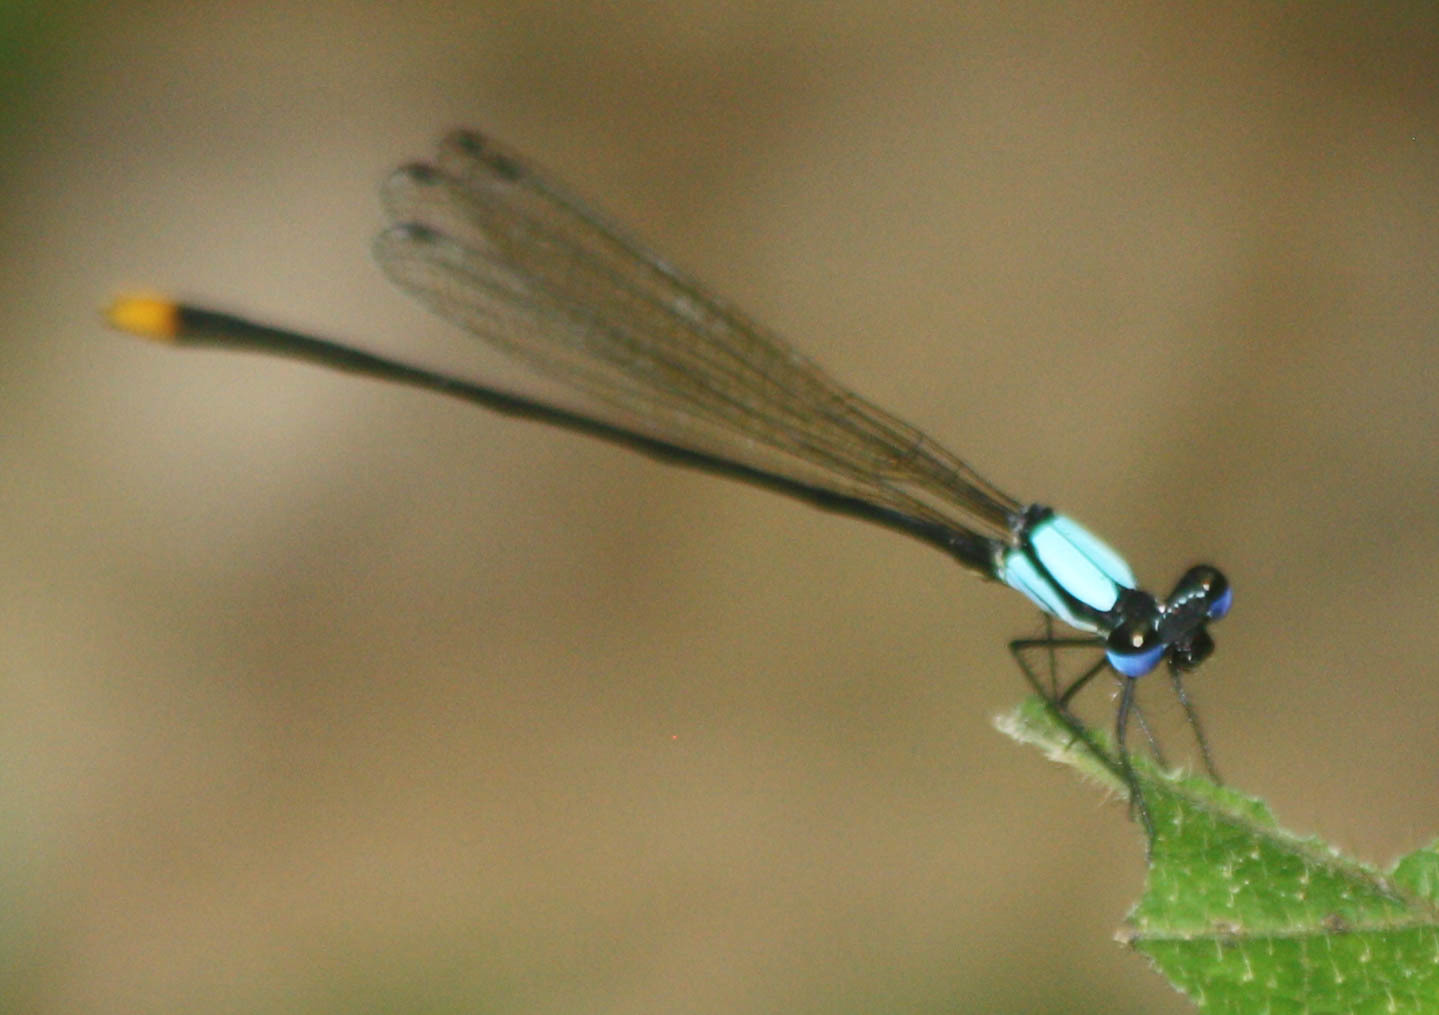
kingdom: Animalia
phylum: Arthropoda
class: Insecta
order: Odonata
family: Platycnemididae
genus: Coeliccia
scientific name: Coeliccia poungyi
